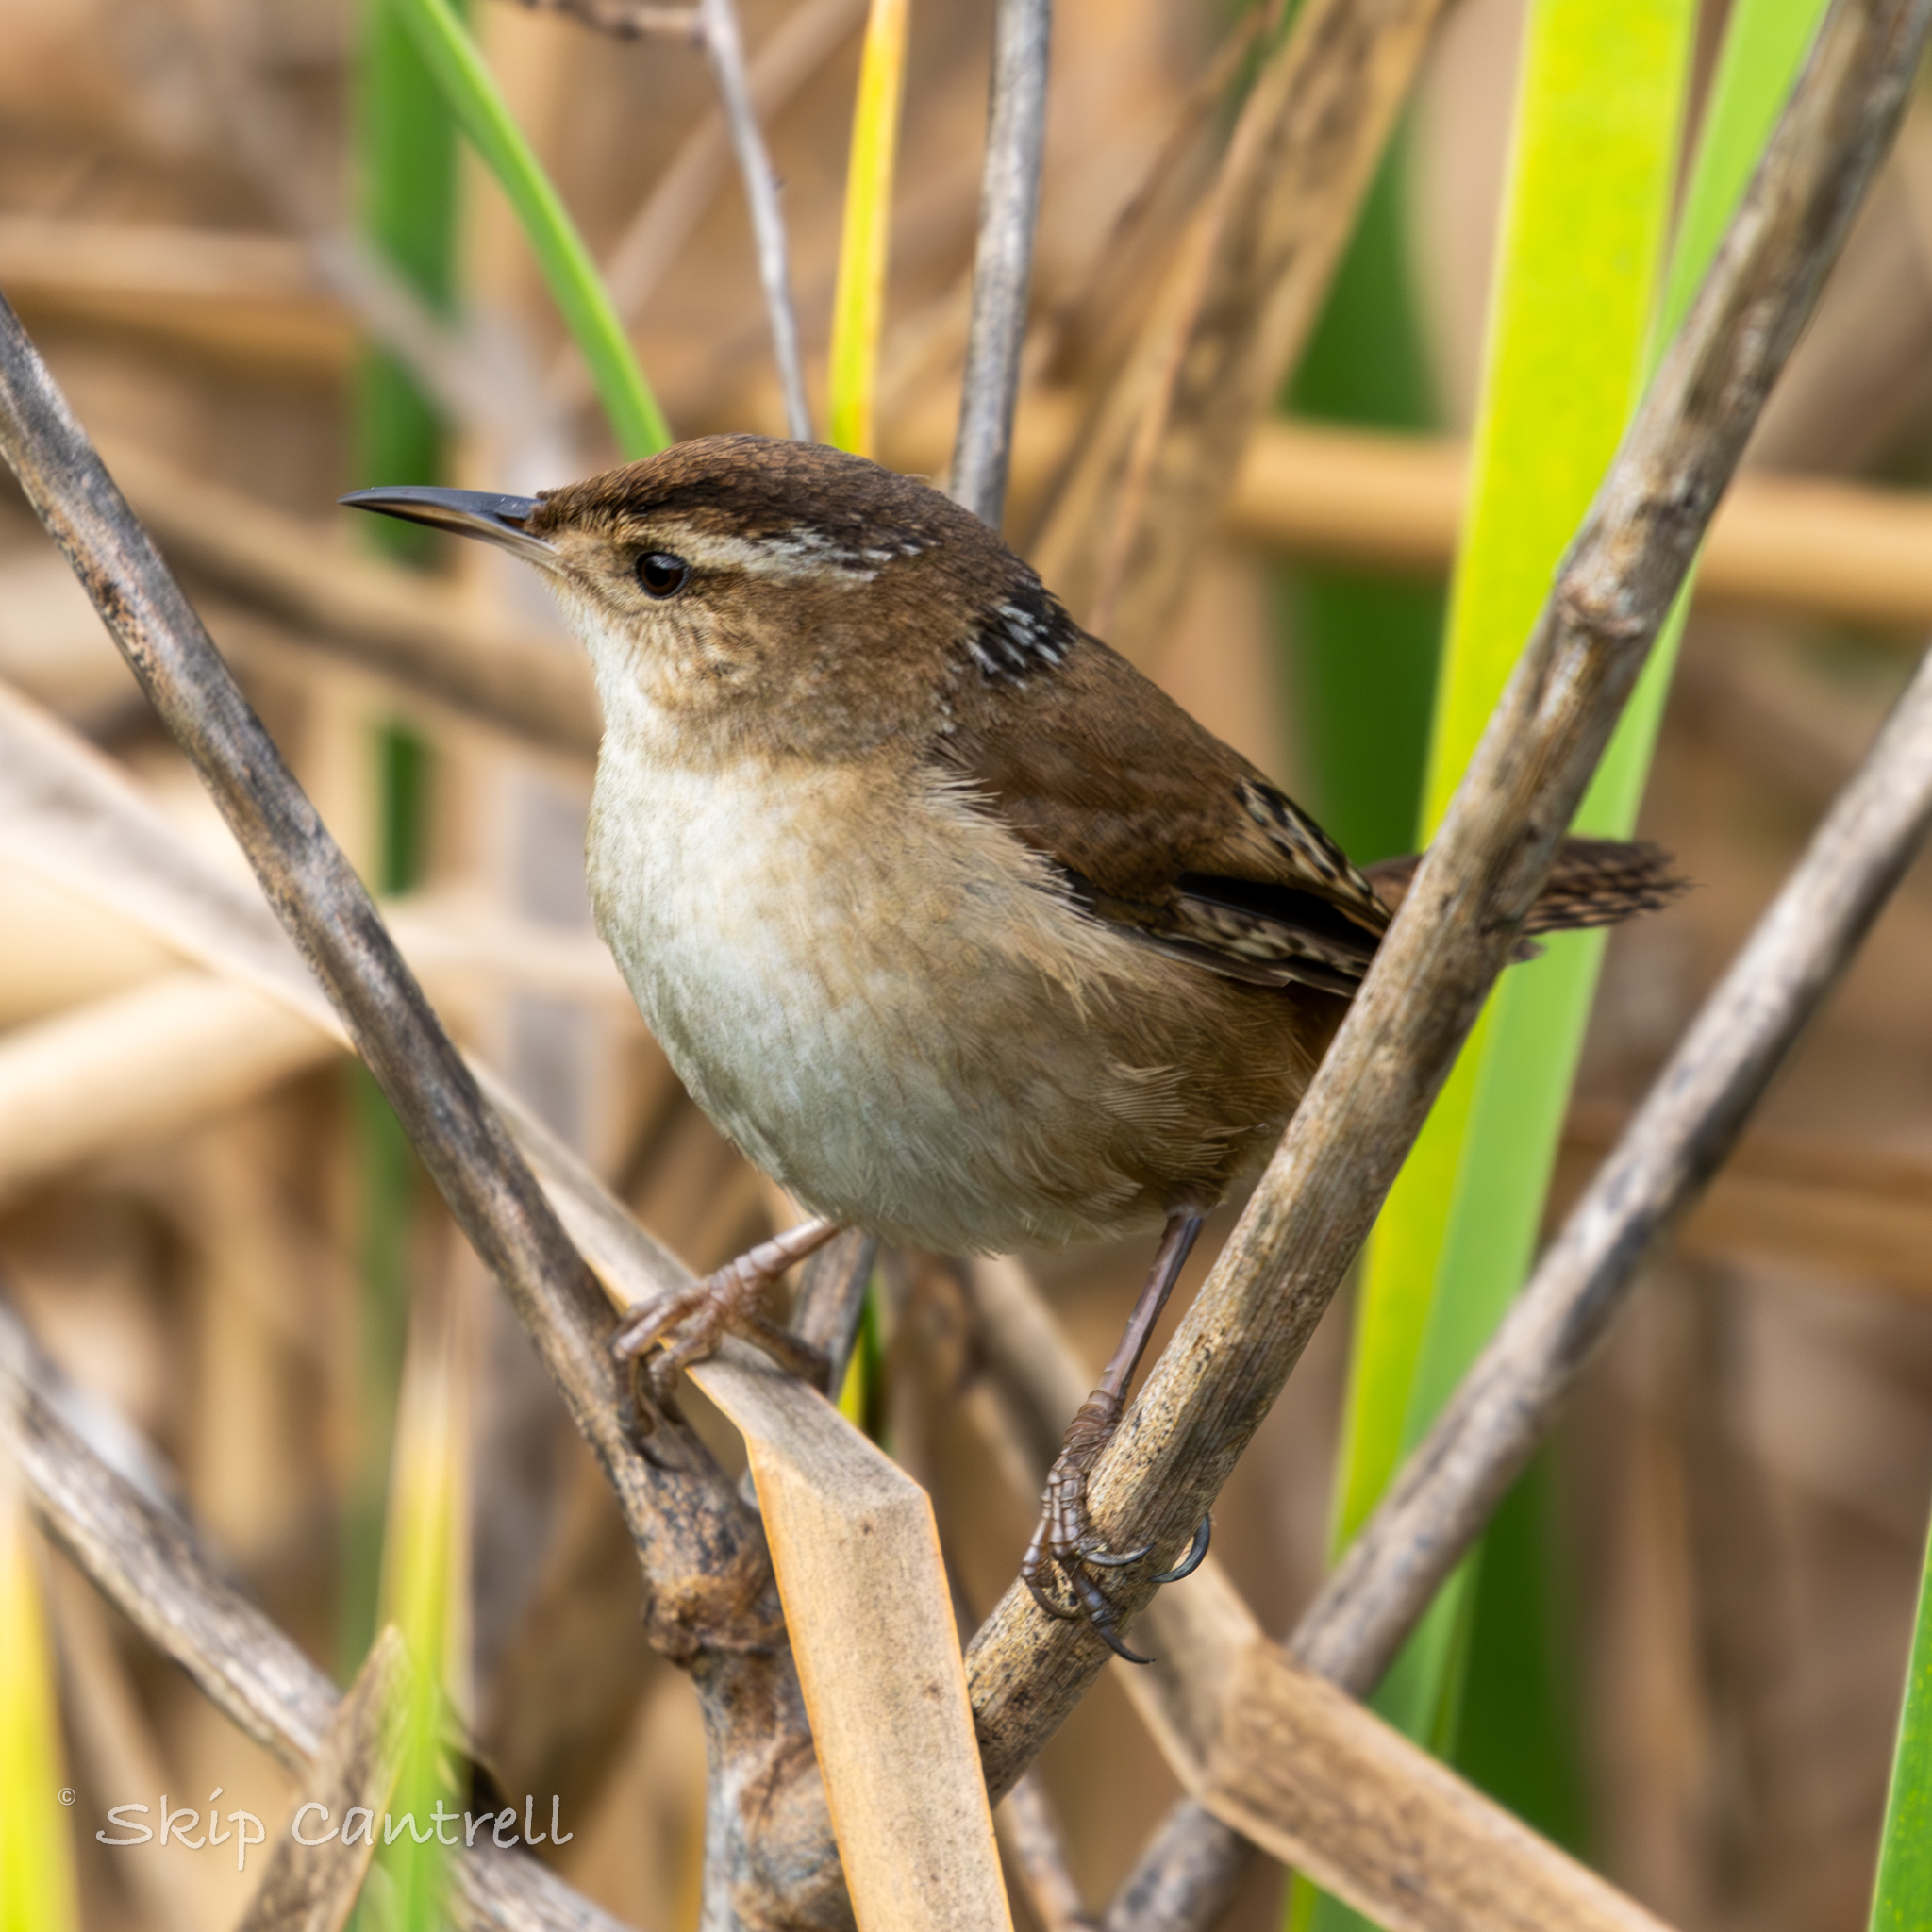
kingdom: Animalia
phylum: Chordata
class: Aves
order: Passeriformes
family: Troglodytidae
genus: Cistothorus
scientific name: Cistothorus palustris
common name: Marsh wren
